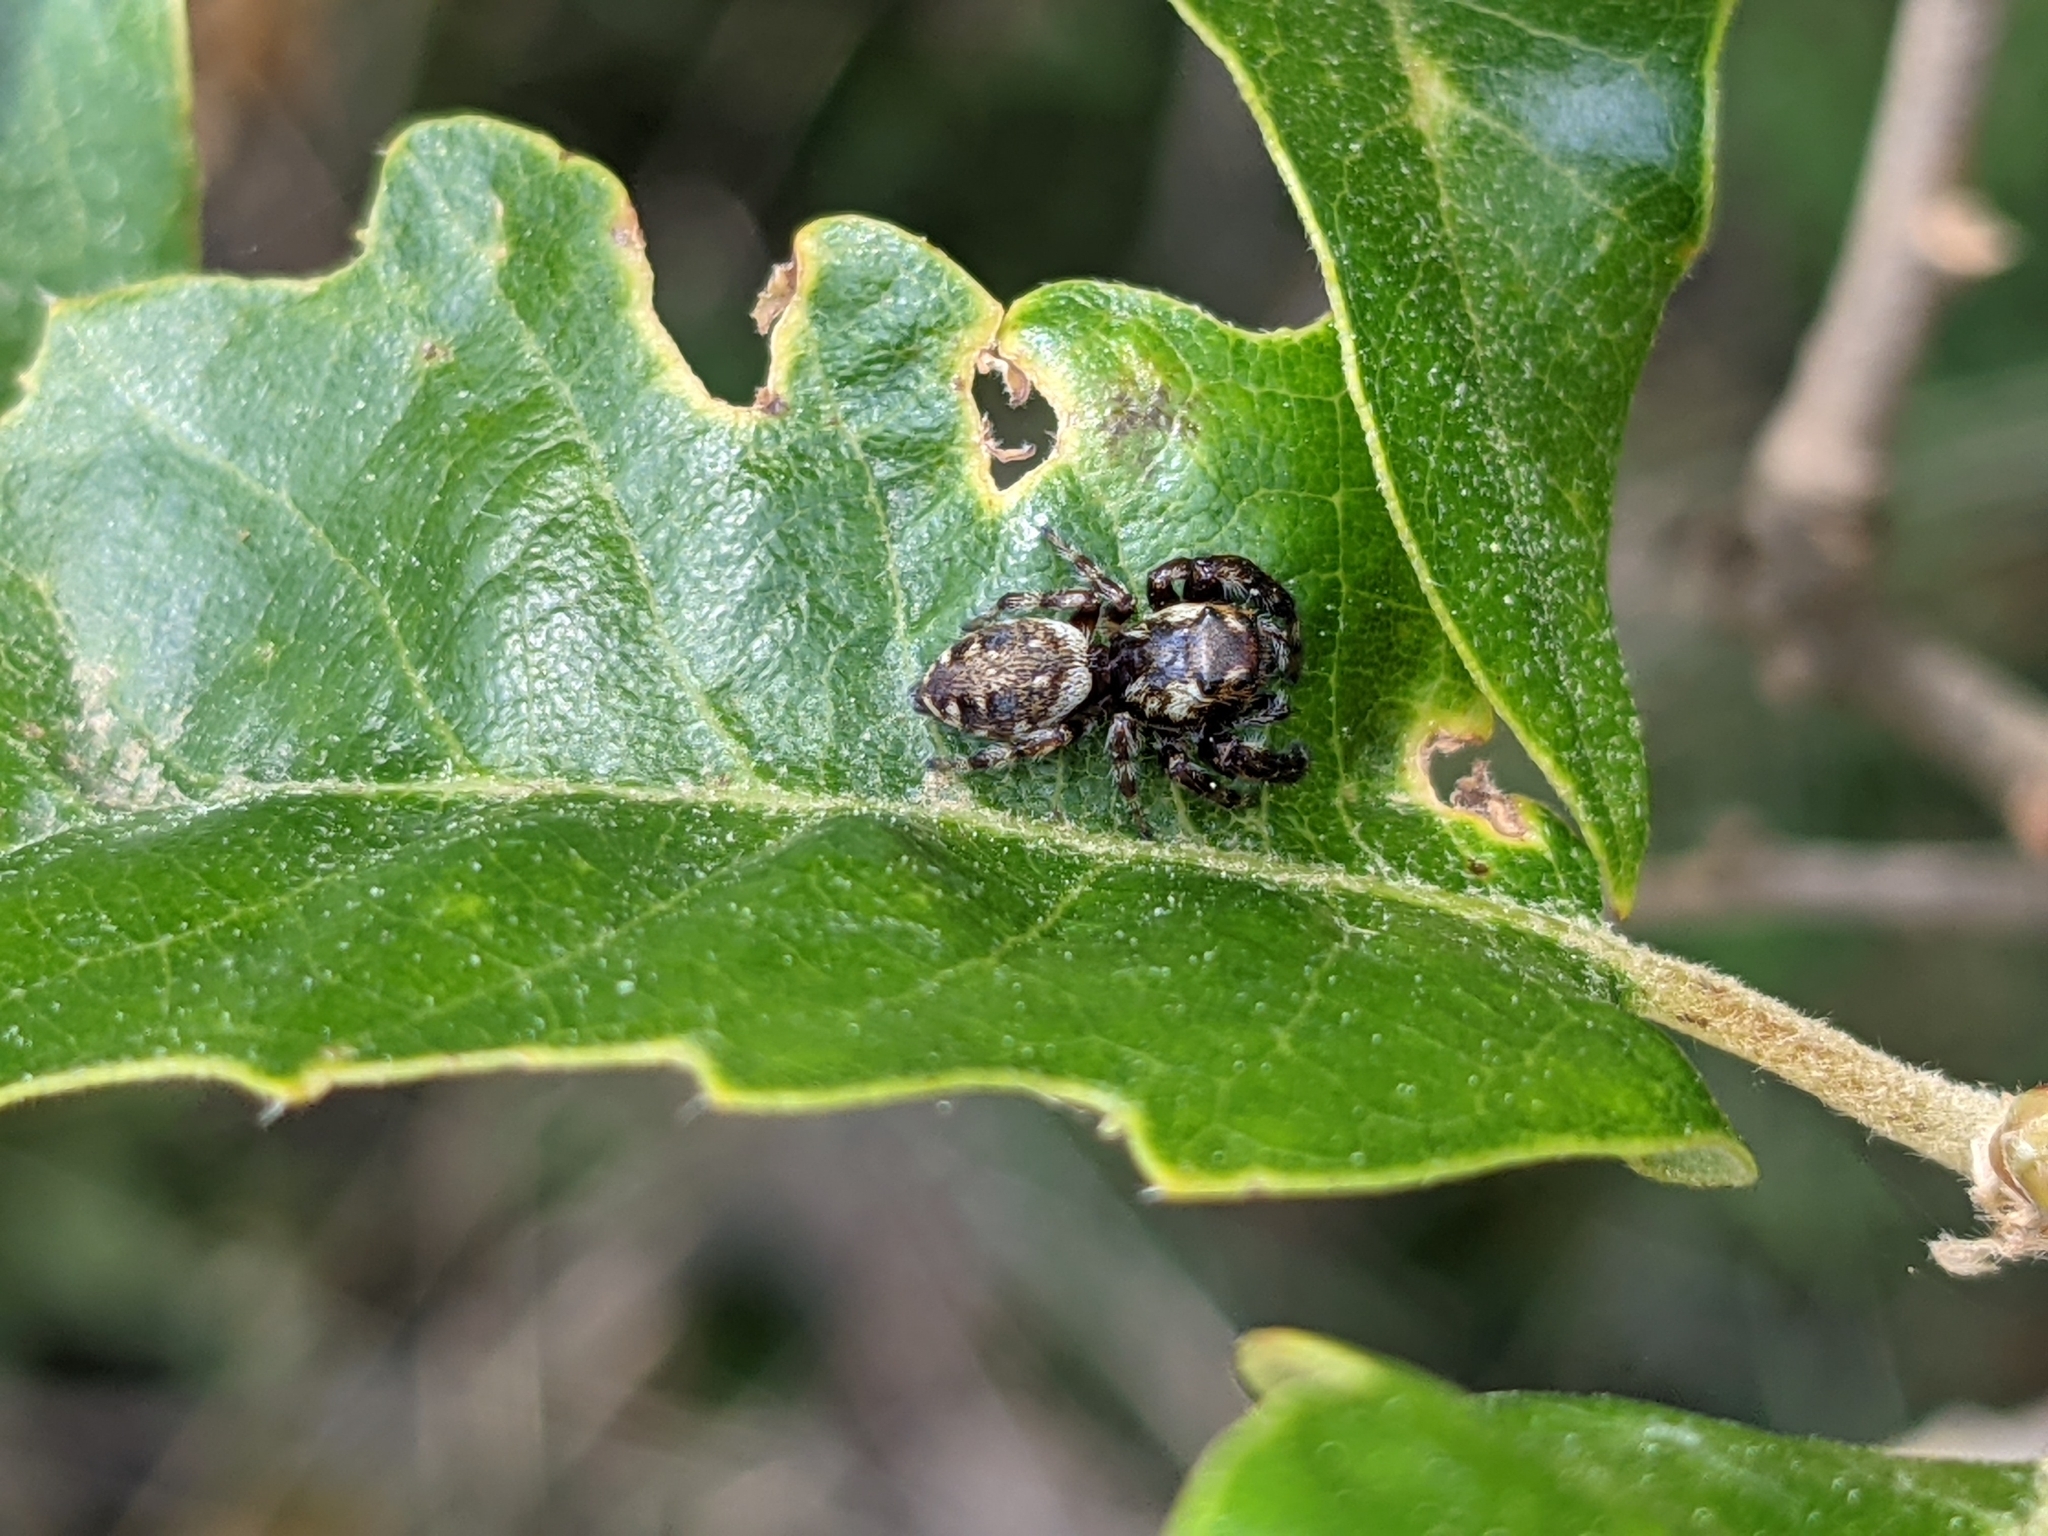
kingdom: Animalia
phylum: Arthropoda
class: Arachnida
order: Araneae
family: Salticidae
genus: Macaroeris
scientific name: Macaroeris nidicolens
